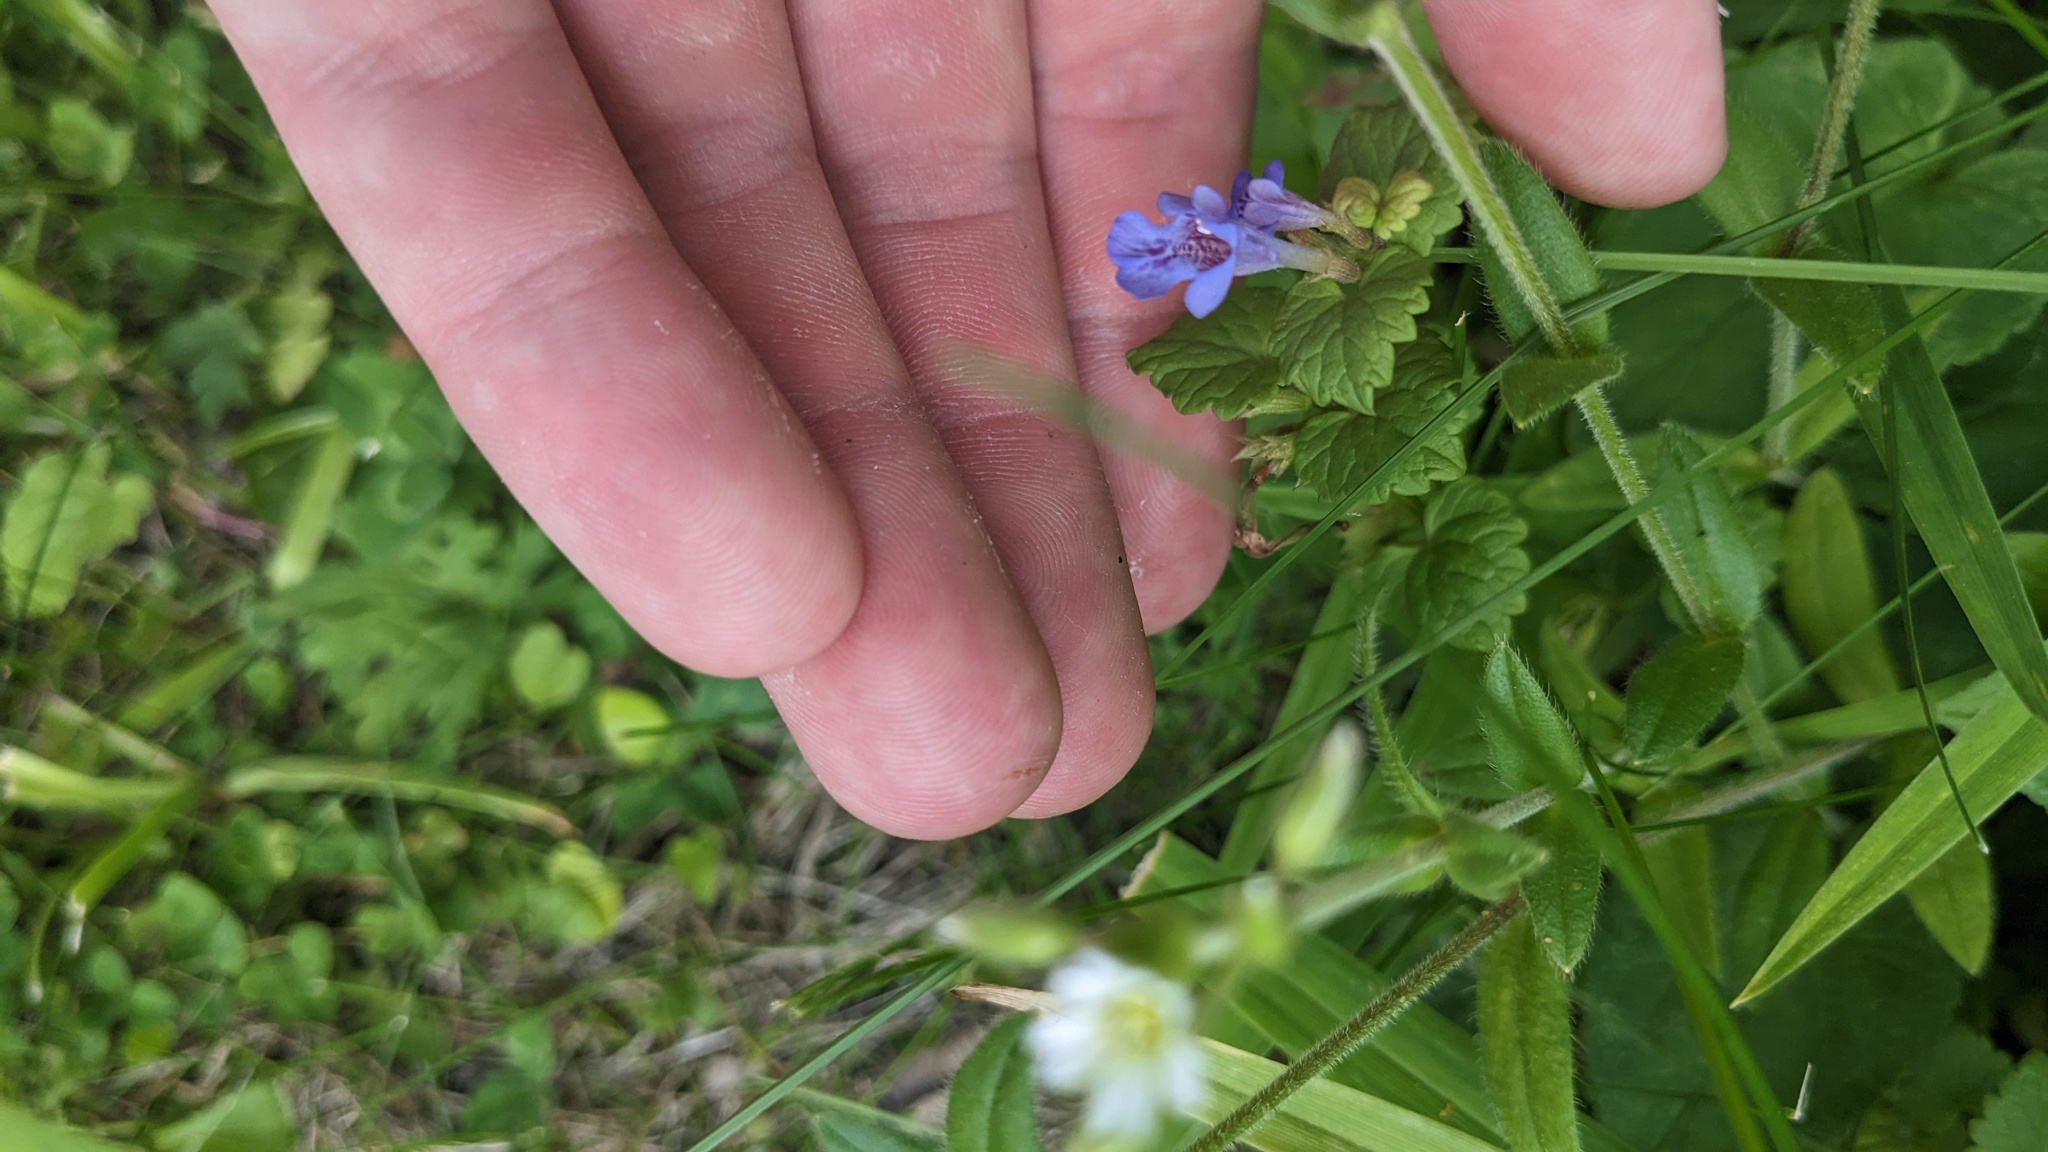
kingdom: Plantae
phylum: Tracheophyta
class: Magnoliopsida
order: Lamiales
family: Lamiaceae
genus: Glechoma
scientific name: Glechoma hederacea
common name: Ground ivy
